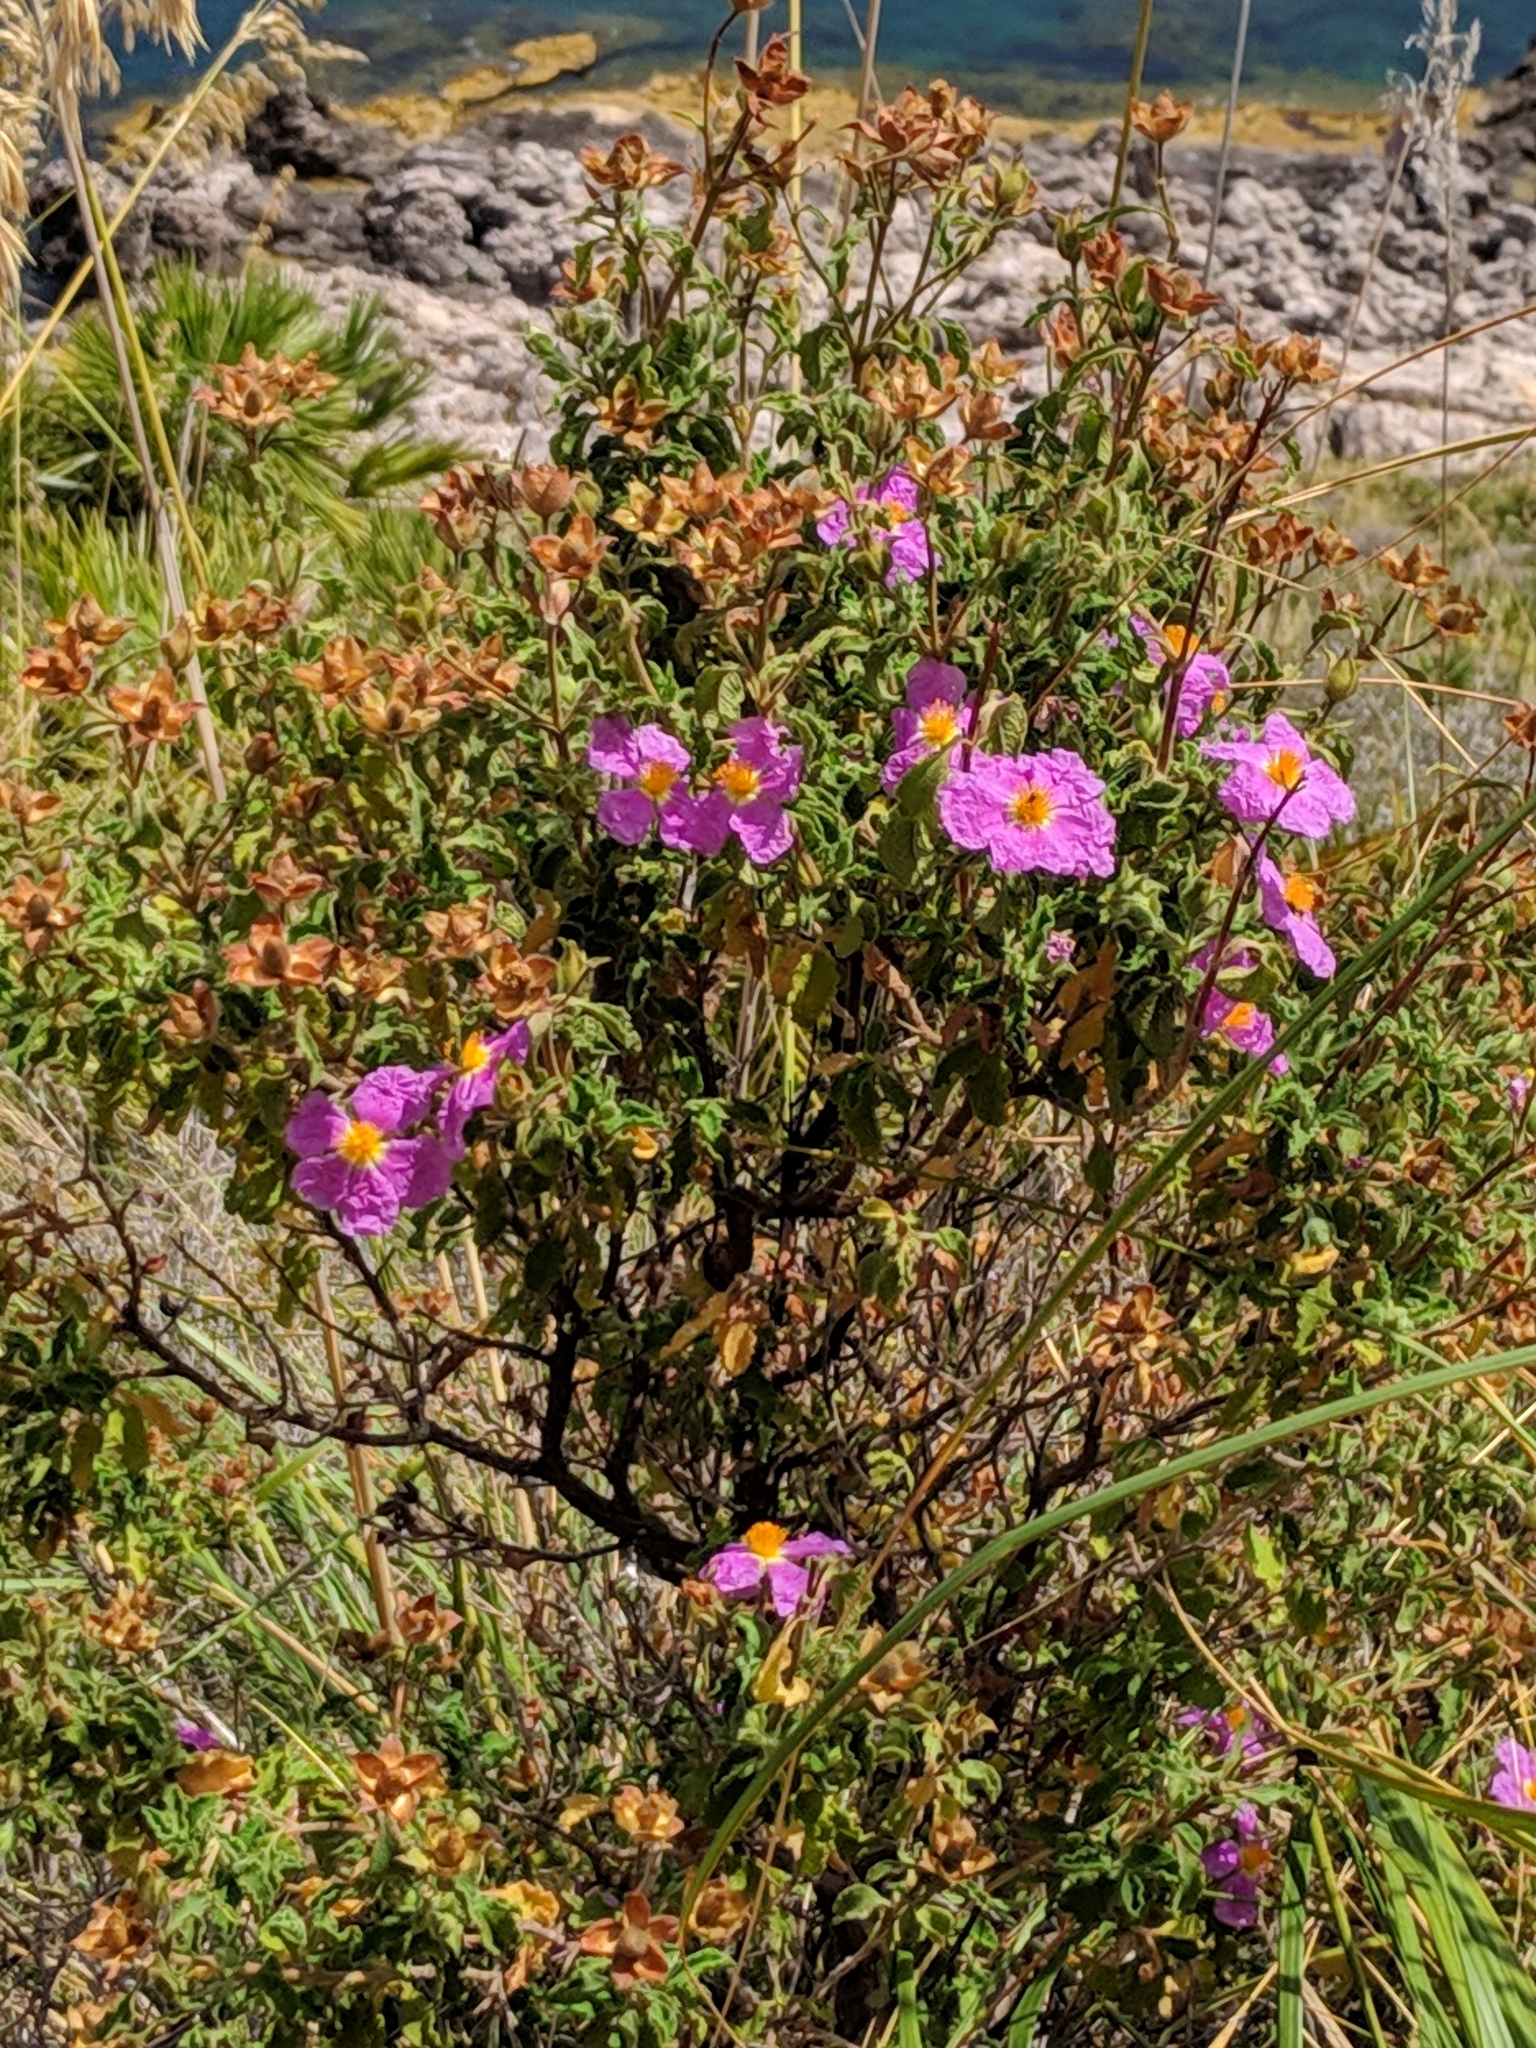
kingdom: Plantae
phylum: Tracheophyta
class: Magnoliopsida
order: Malvales
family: Cistaceae
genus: Cistus
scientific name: Cistus creticus
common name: Cretan rockrose
